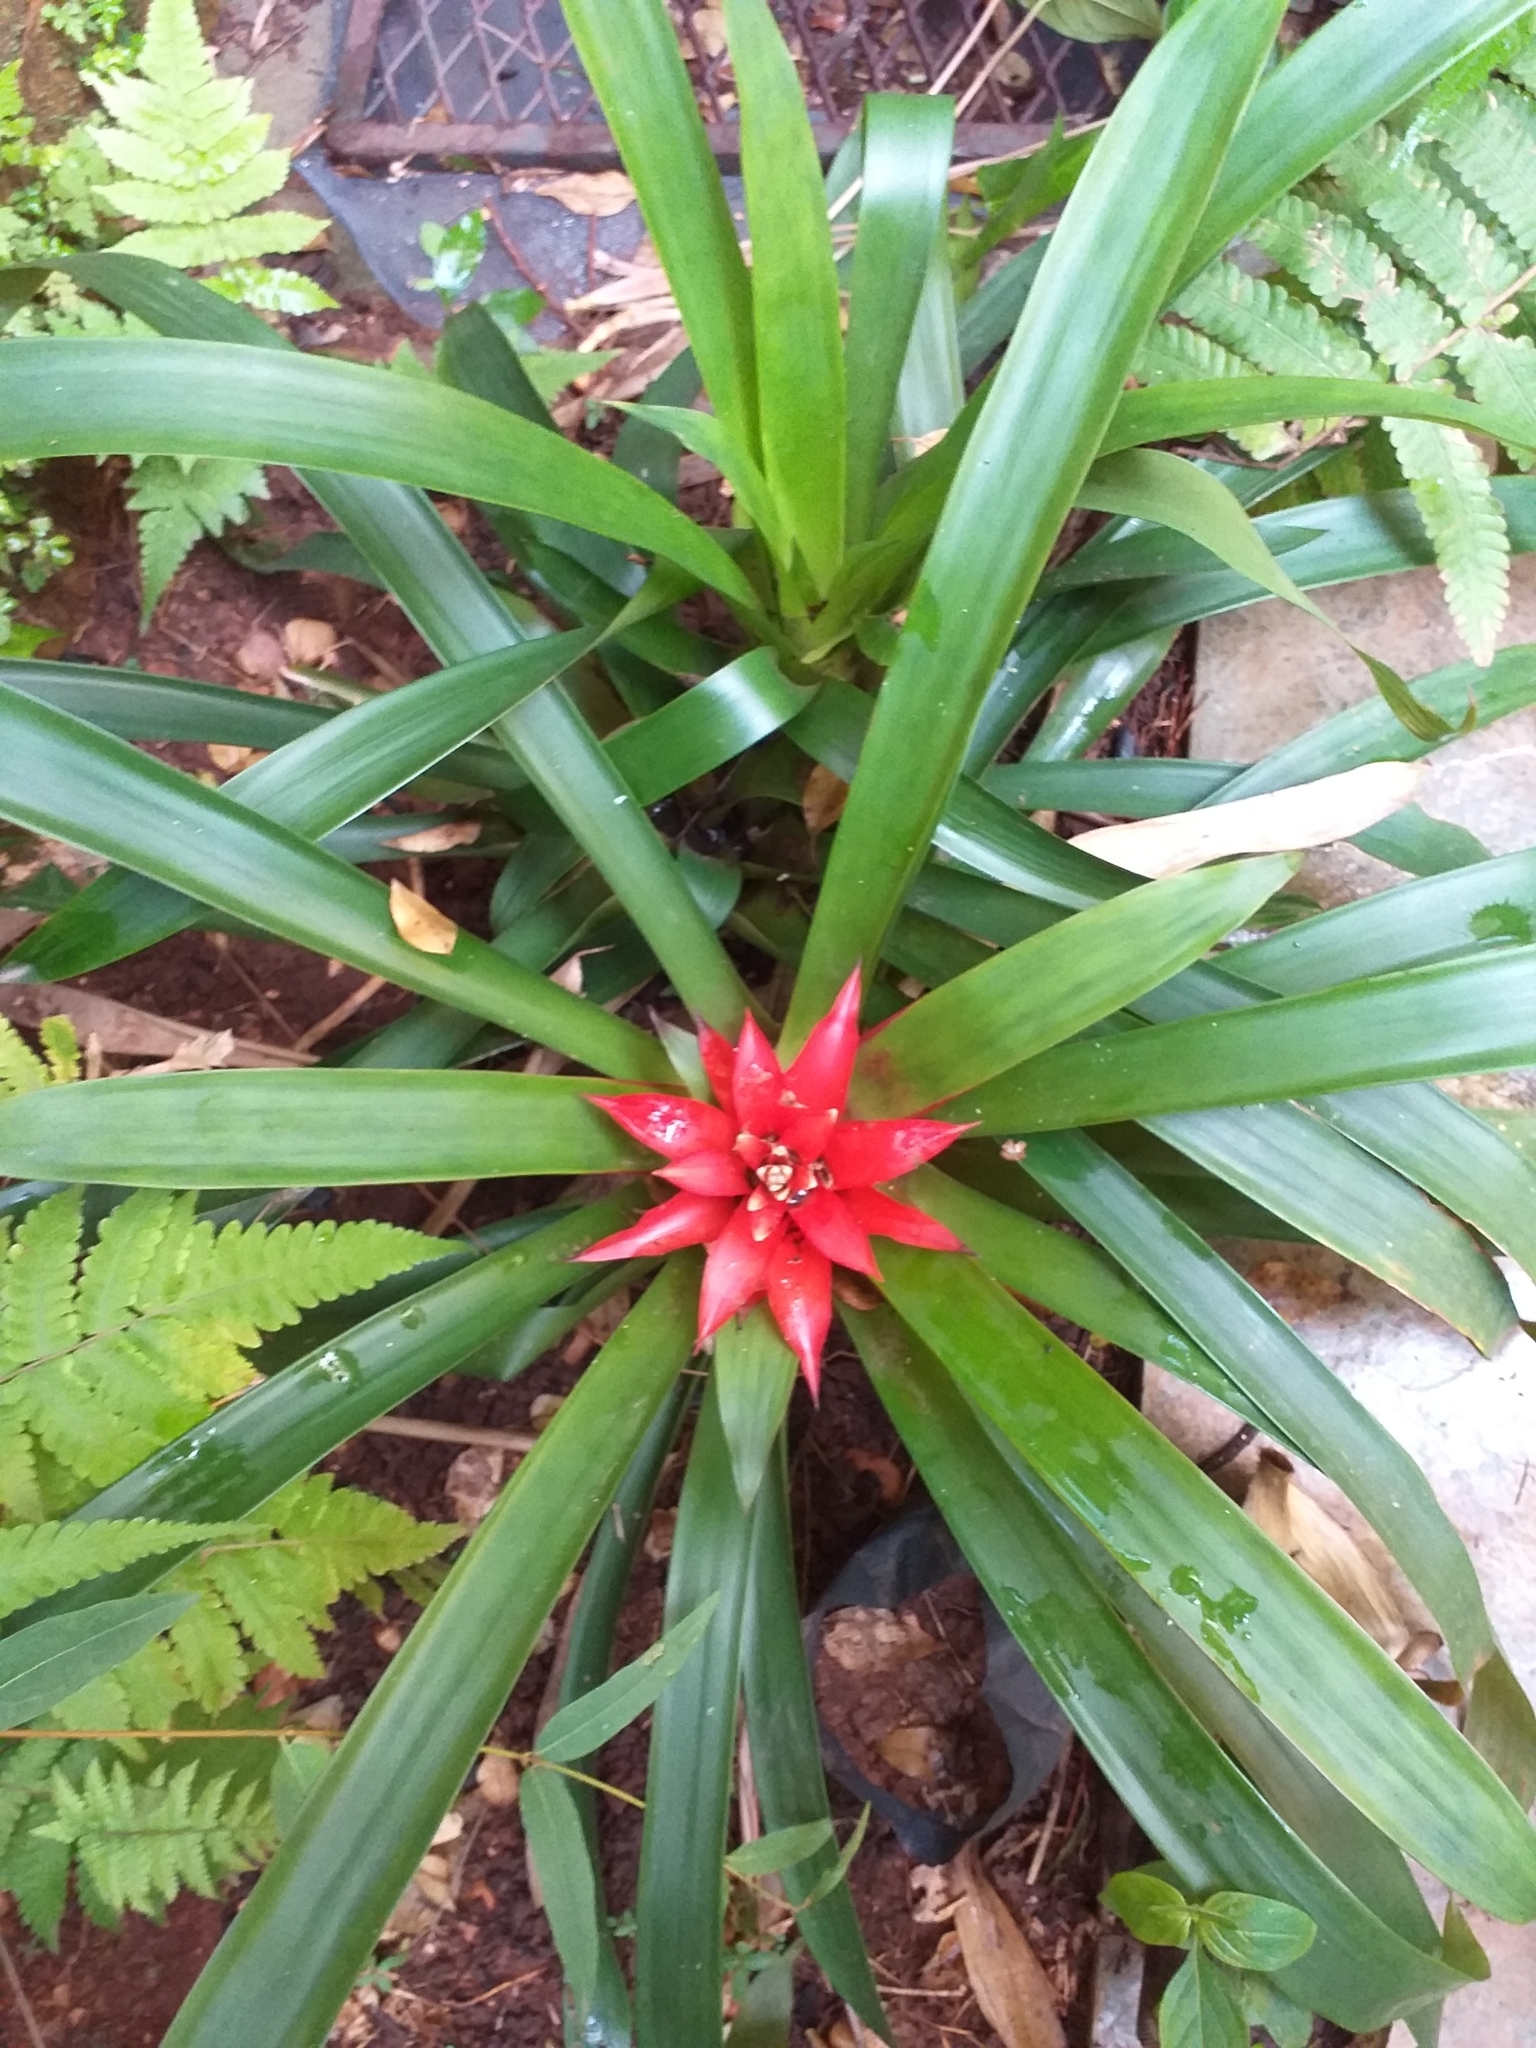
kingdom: Plantae
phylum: Tracheophyta
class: Liliopsida
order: Poales
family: Bromeliaceae
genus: Guzmania
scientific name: Guzmania lingulata
